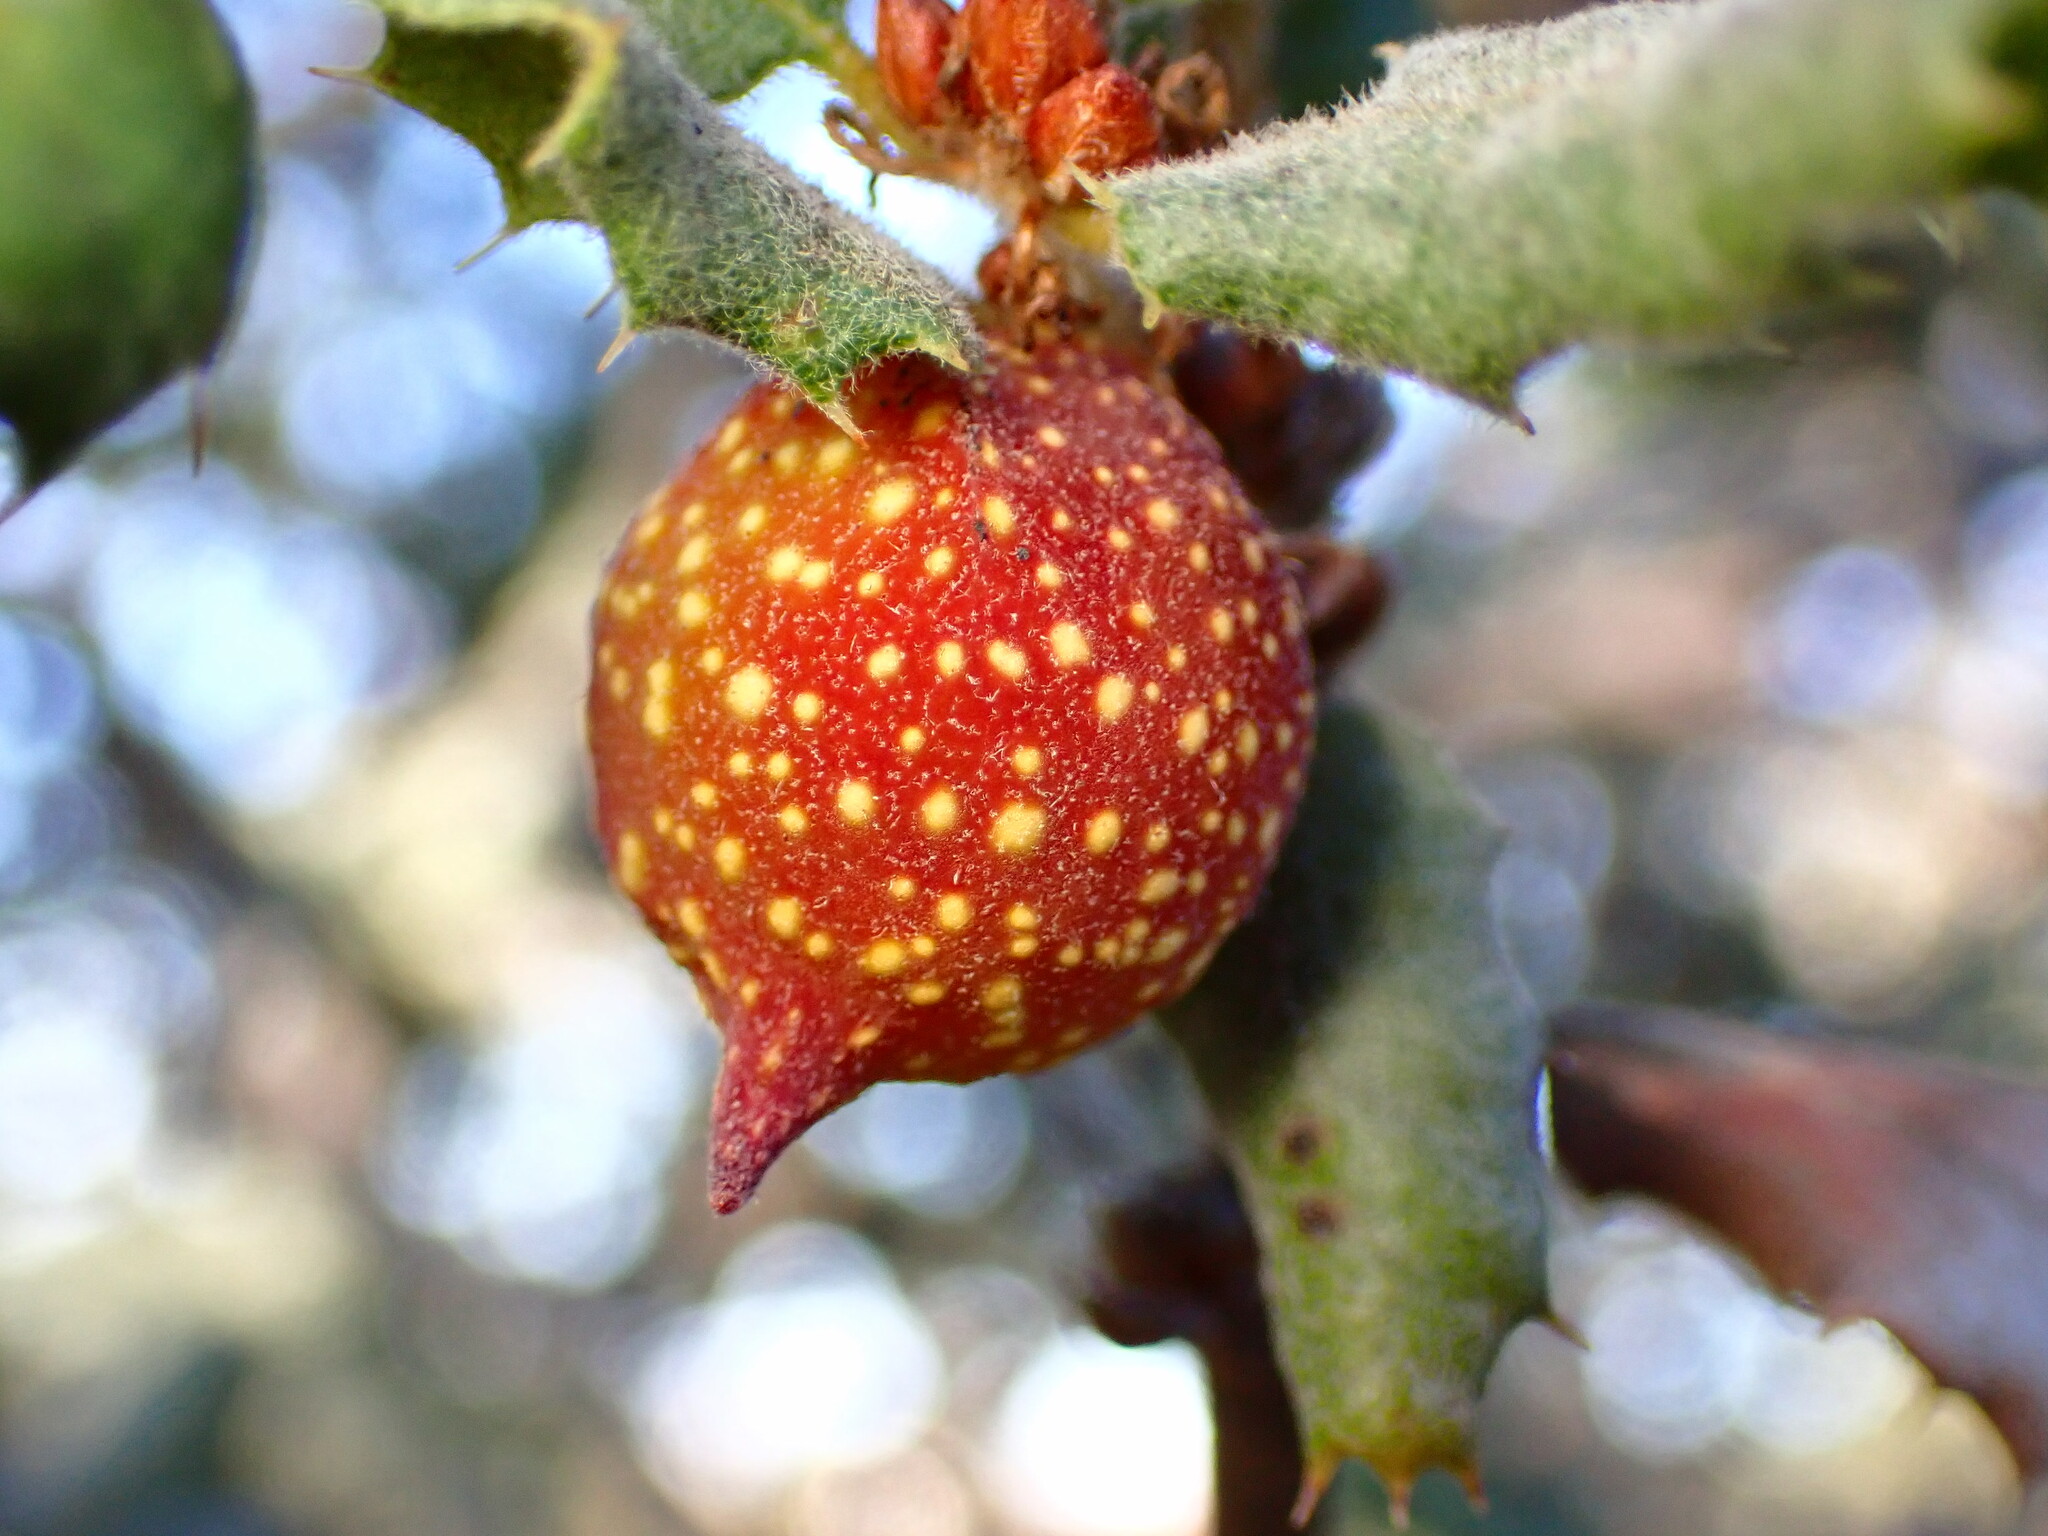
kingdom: Animalia
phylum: Arthropoda
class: Insecta
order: Hymenoptera
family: Cynipidae
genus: Burnettweldia
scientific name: Burnettweldia
